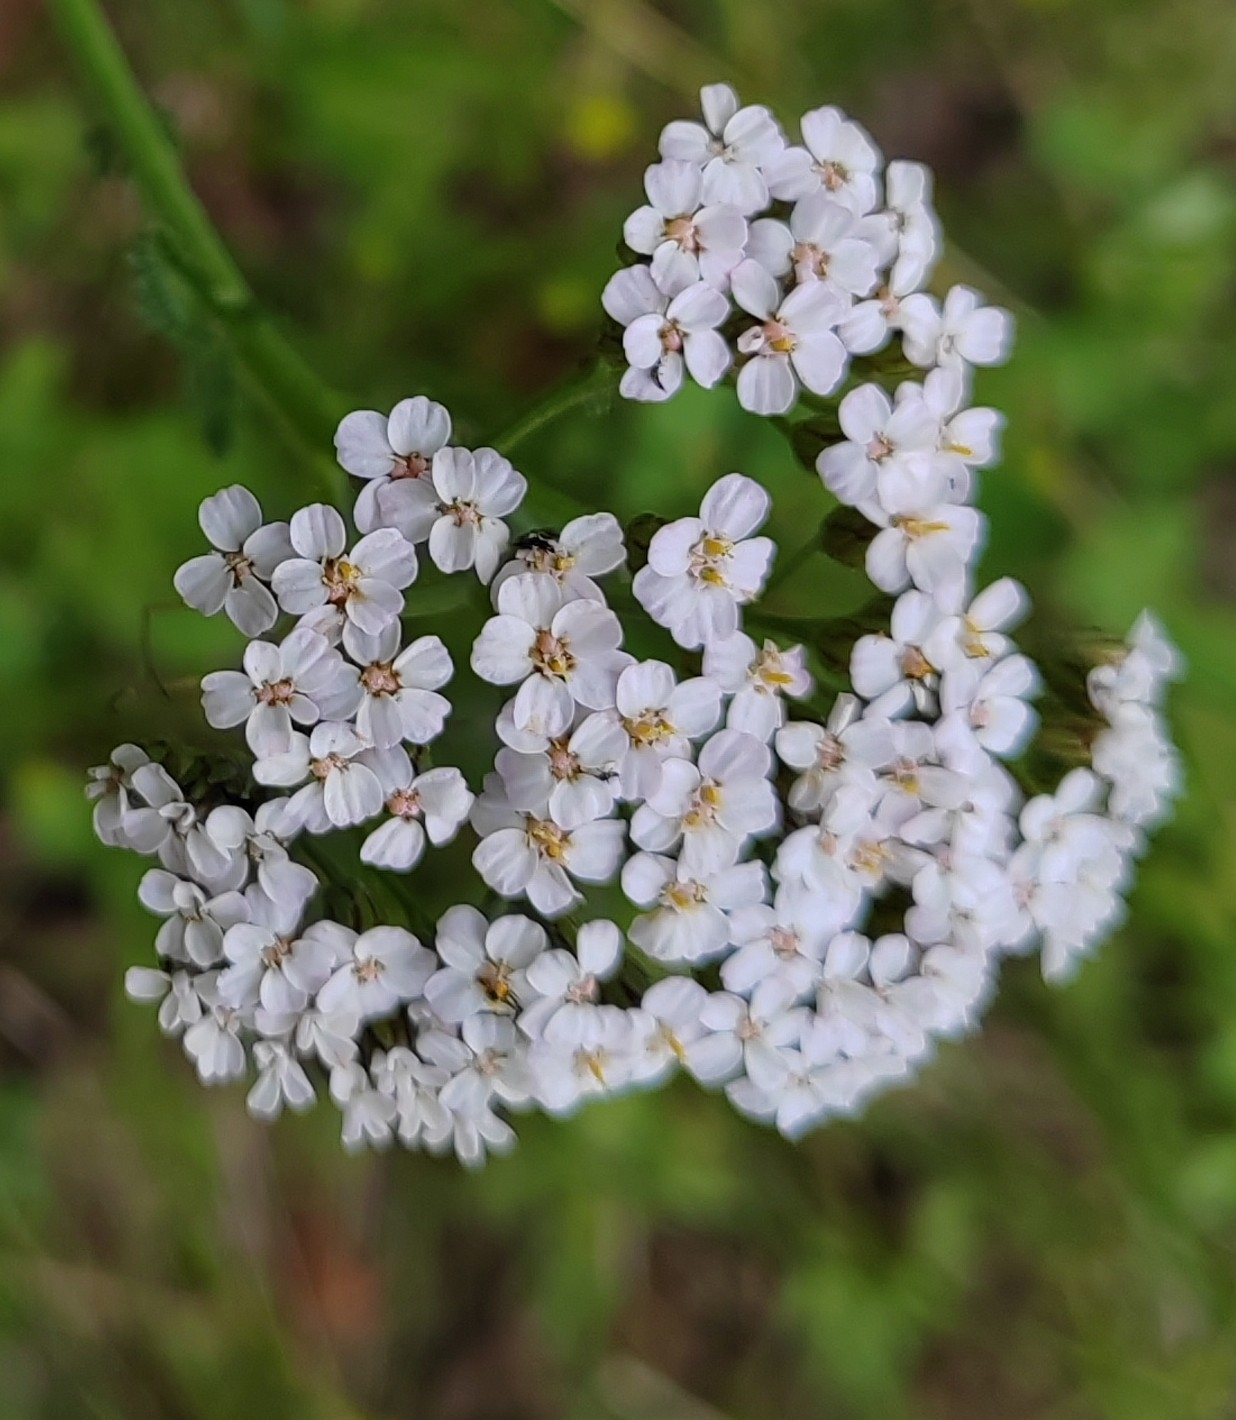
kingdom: Plantae
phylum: Tracheophyta
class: Magnoliopsida
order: Asterales
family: Asteraceae
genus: Achillea
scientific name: Achillea
